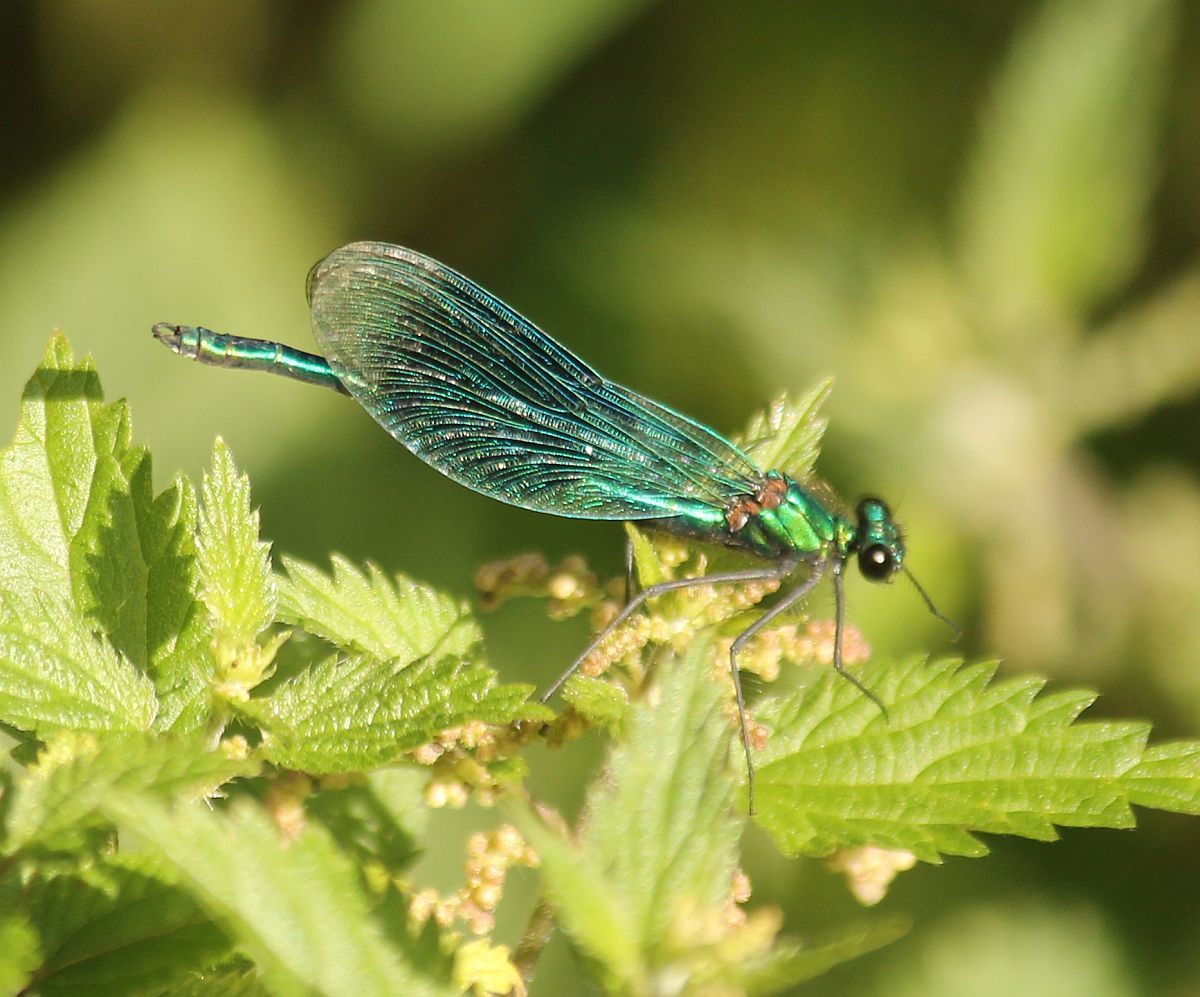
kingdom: Animalia
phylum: Arthropoda
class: Insecta
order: Odonata
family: Calopterygidae
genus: Calopteryx
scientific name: Calopteryx virgo
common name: Beautiful demoiselle
